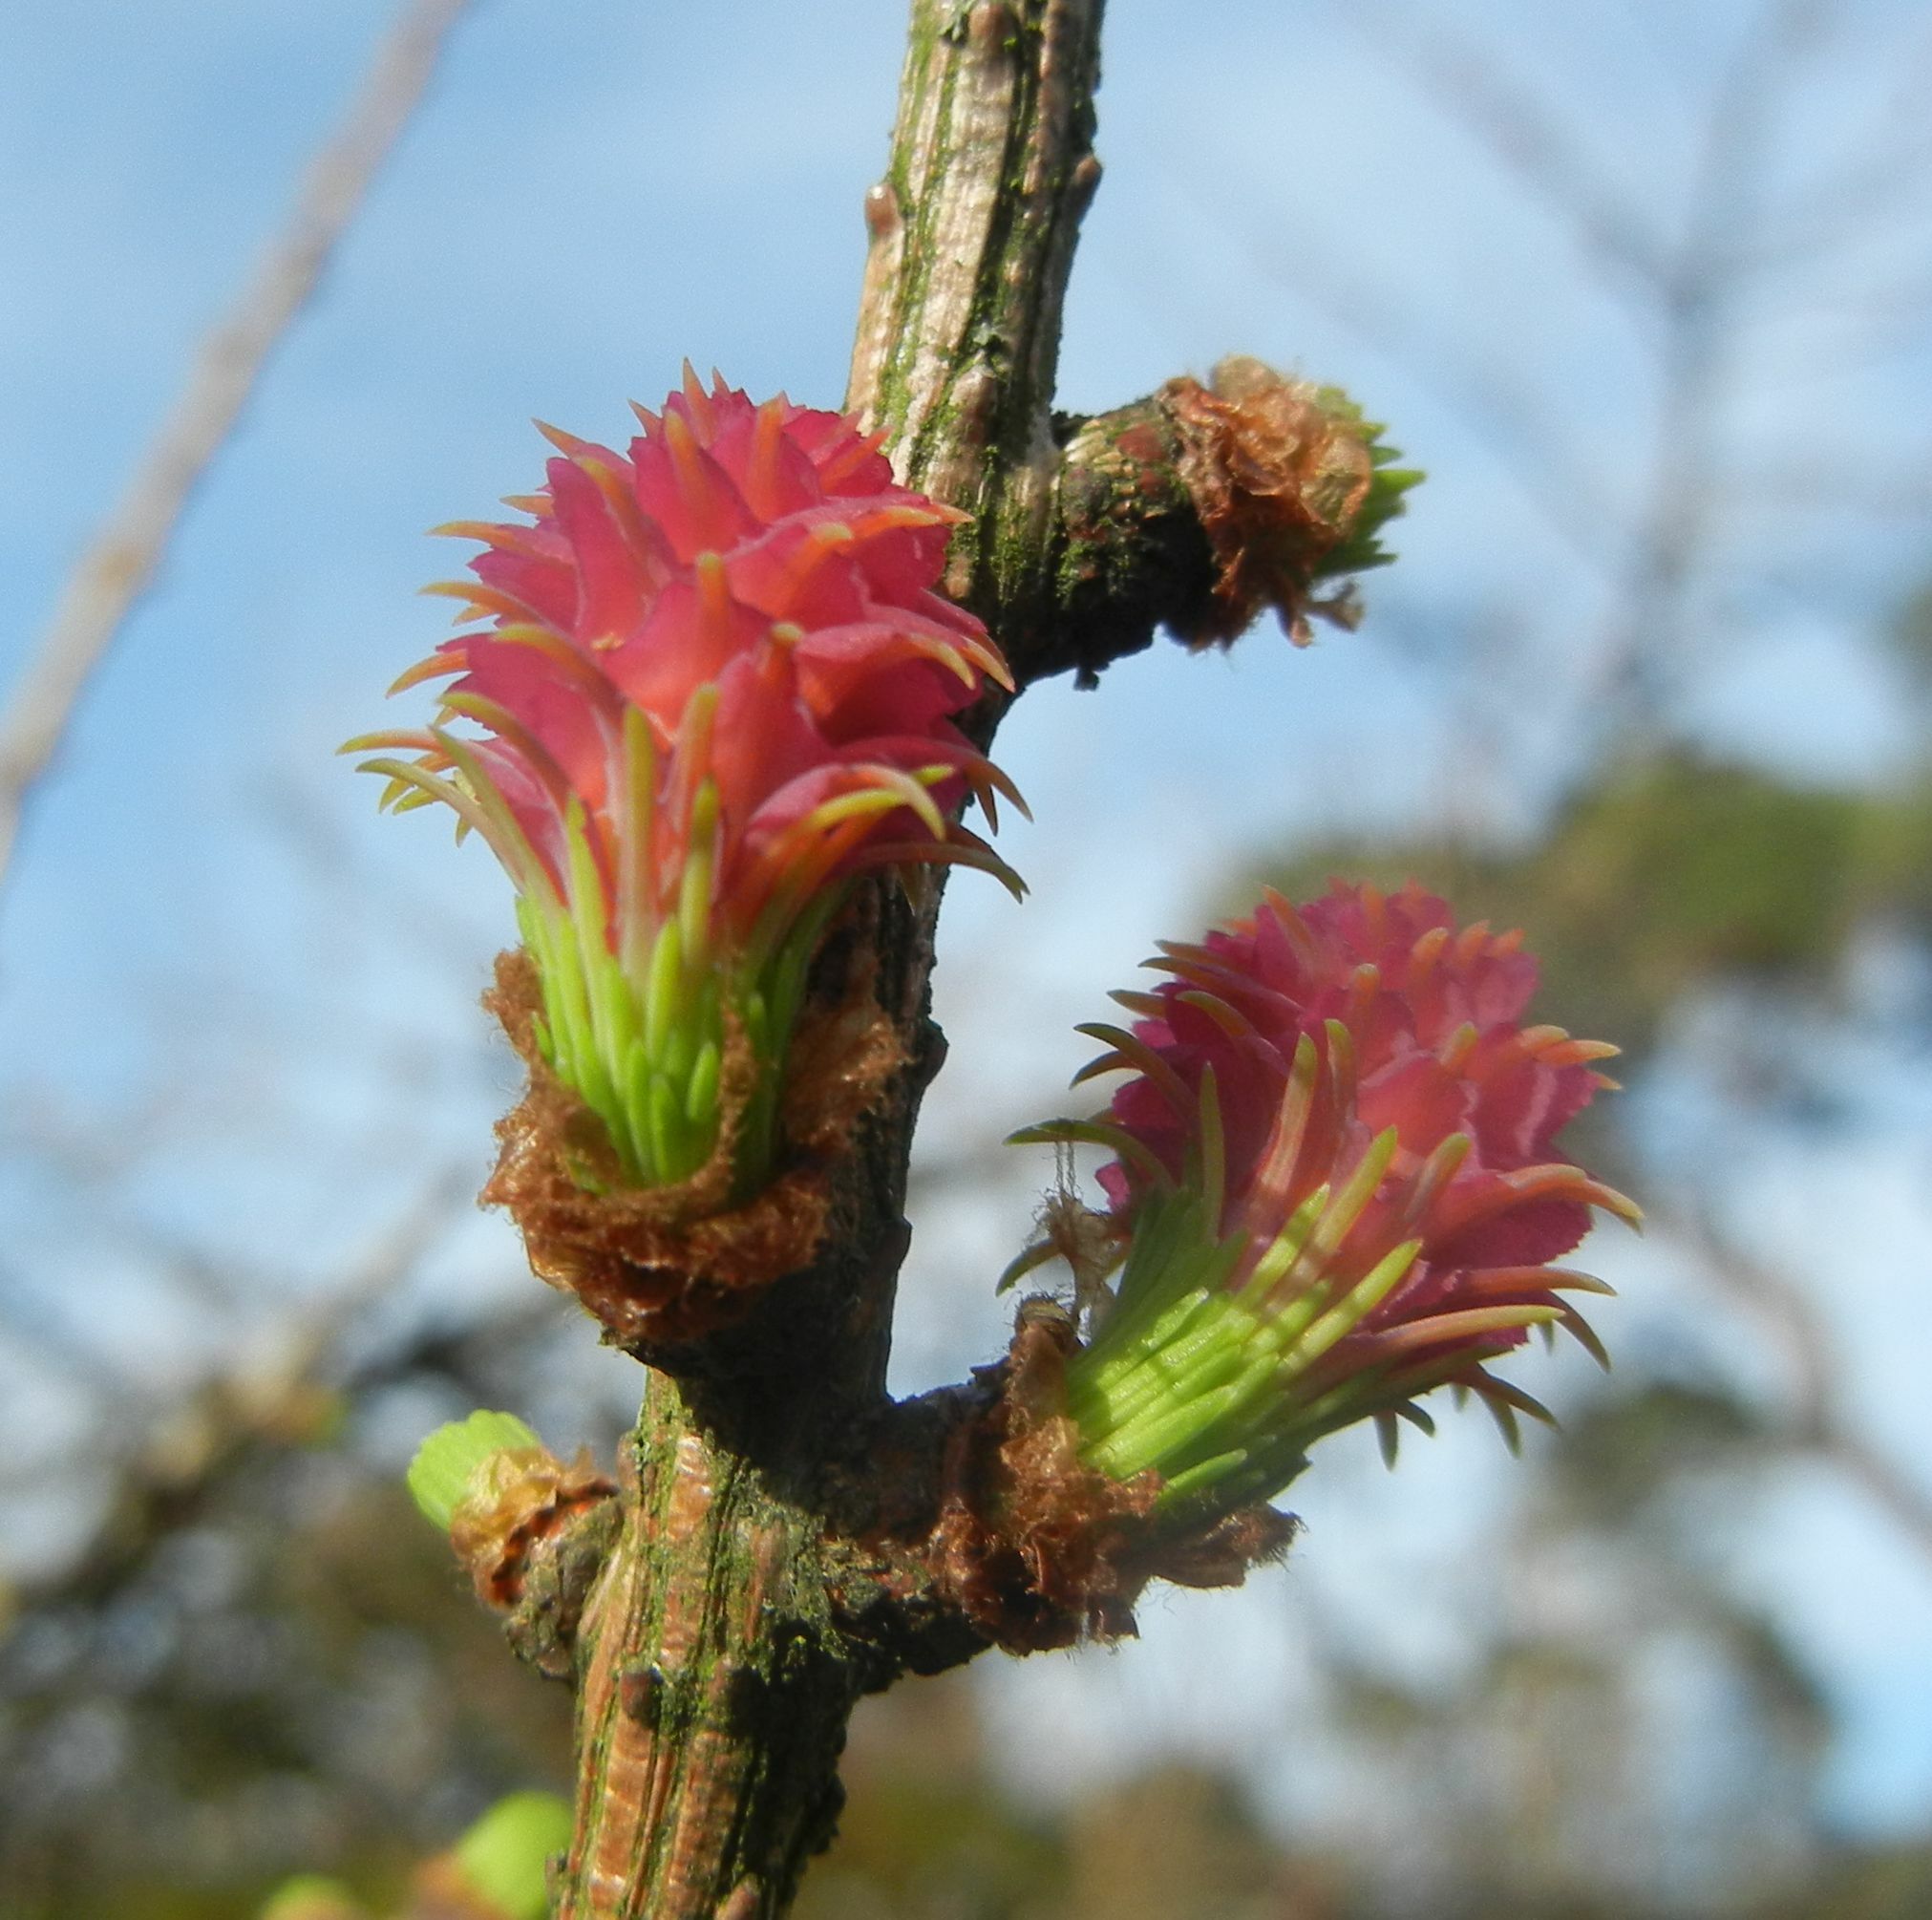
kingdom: Plantae
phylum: Tracheophyta
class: Pinopsida
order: Pinales
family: Pinaceae
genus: Larix
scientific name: Larix decidua
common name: European larch
